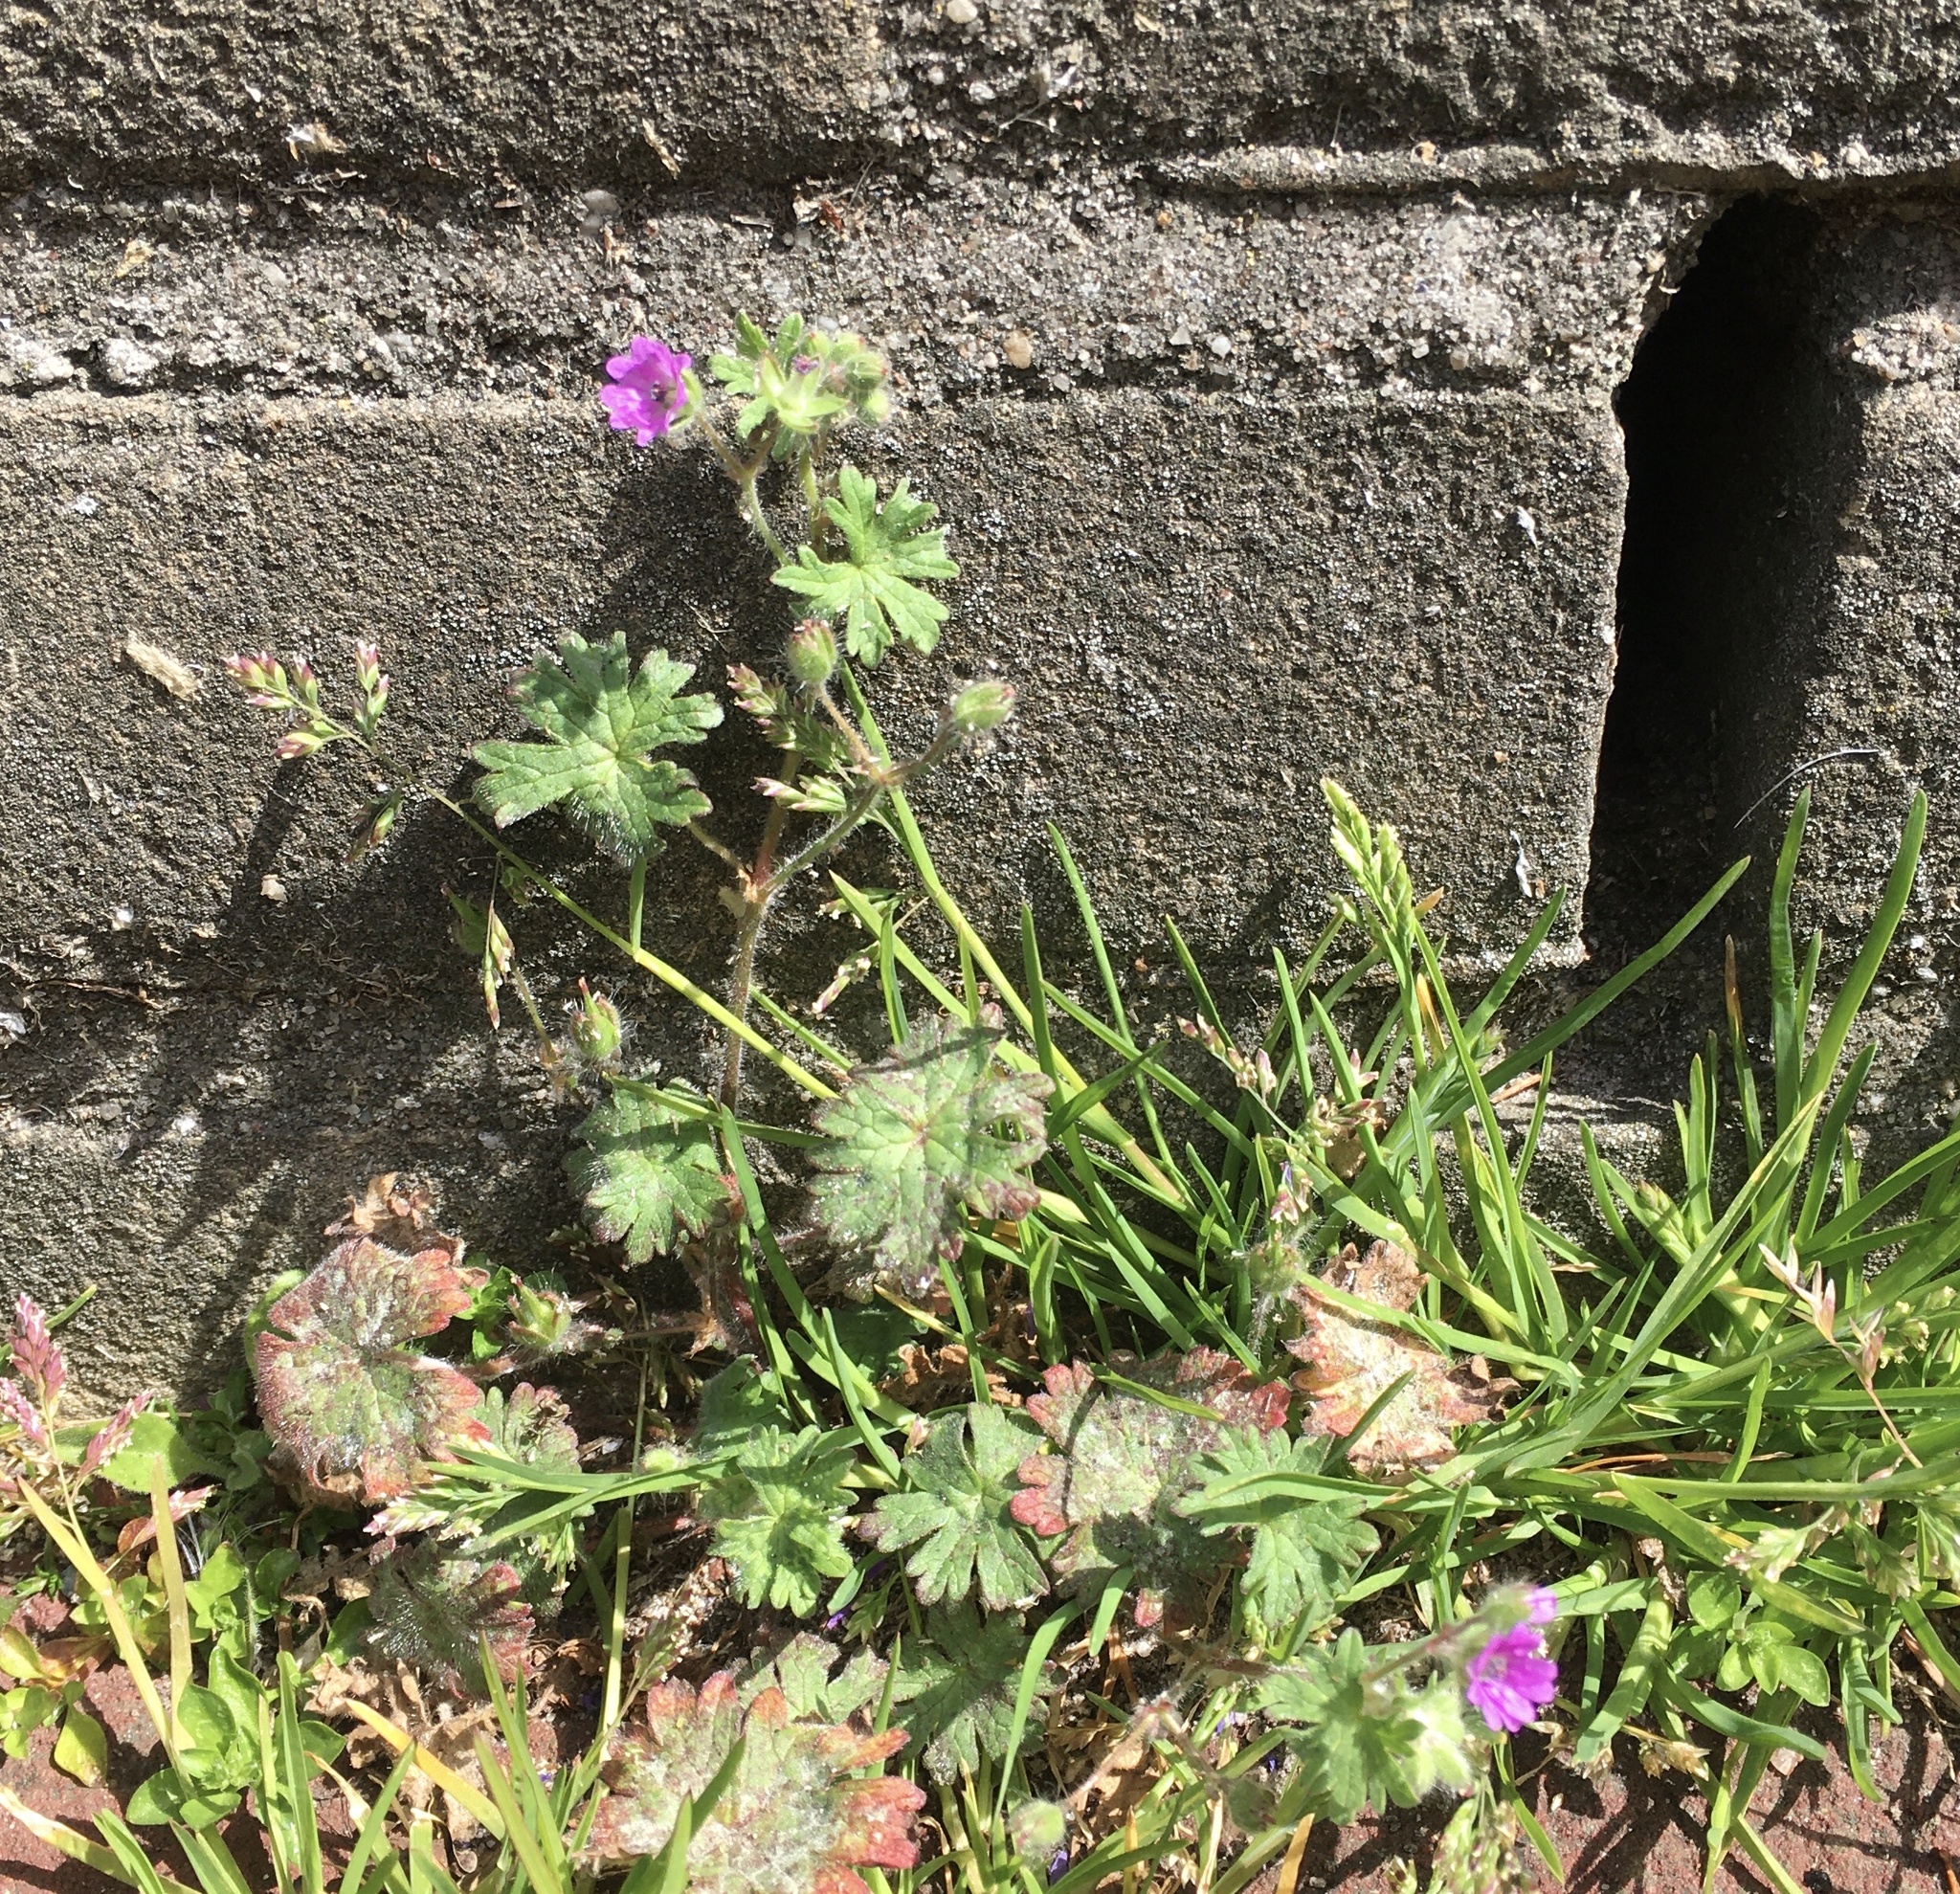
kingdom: Plantae
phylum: Tracheophyta
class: Magnoliopsida
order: Geraniales
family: Geraniaceae
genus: Geranium
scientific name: Geranium molle
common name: Dove's-foot crane's-bill
